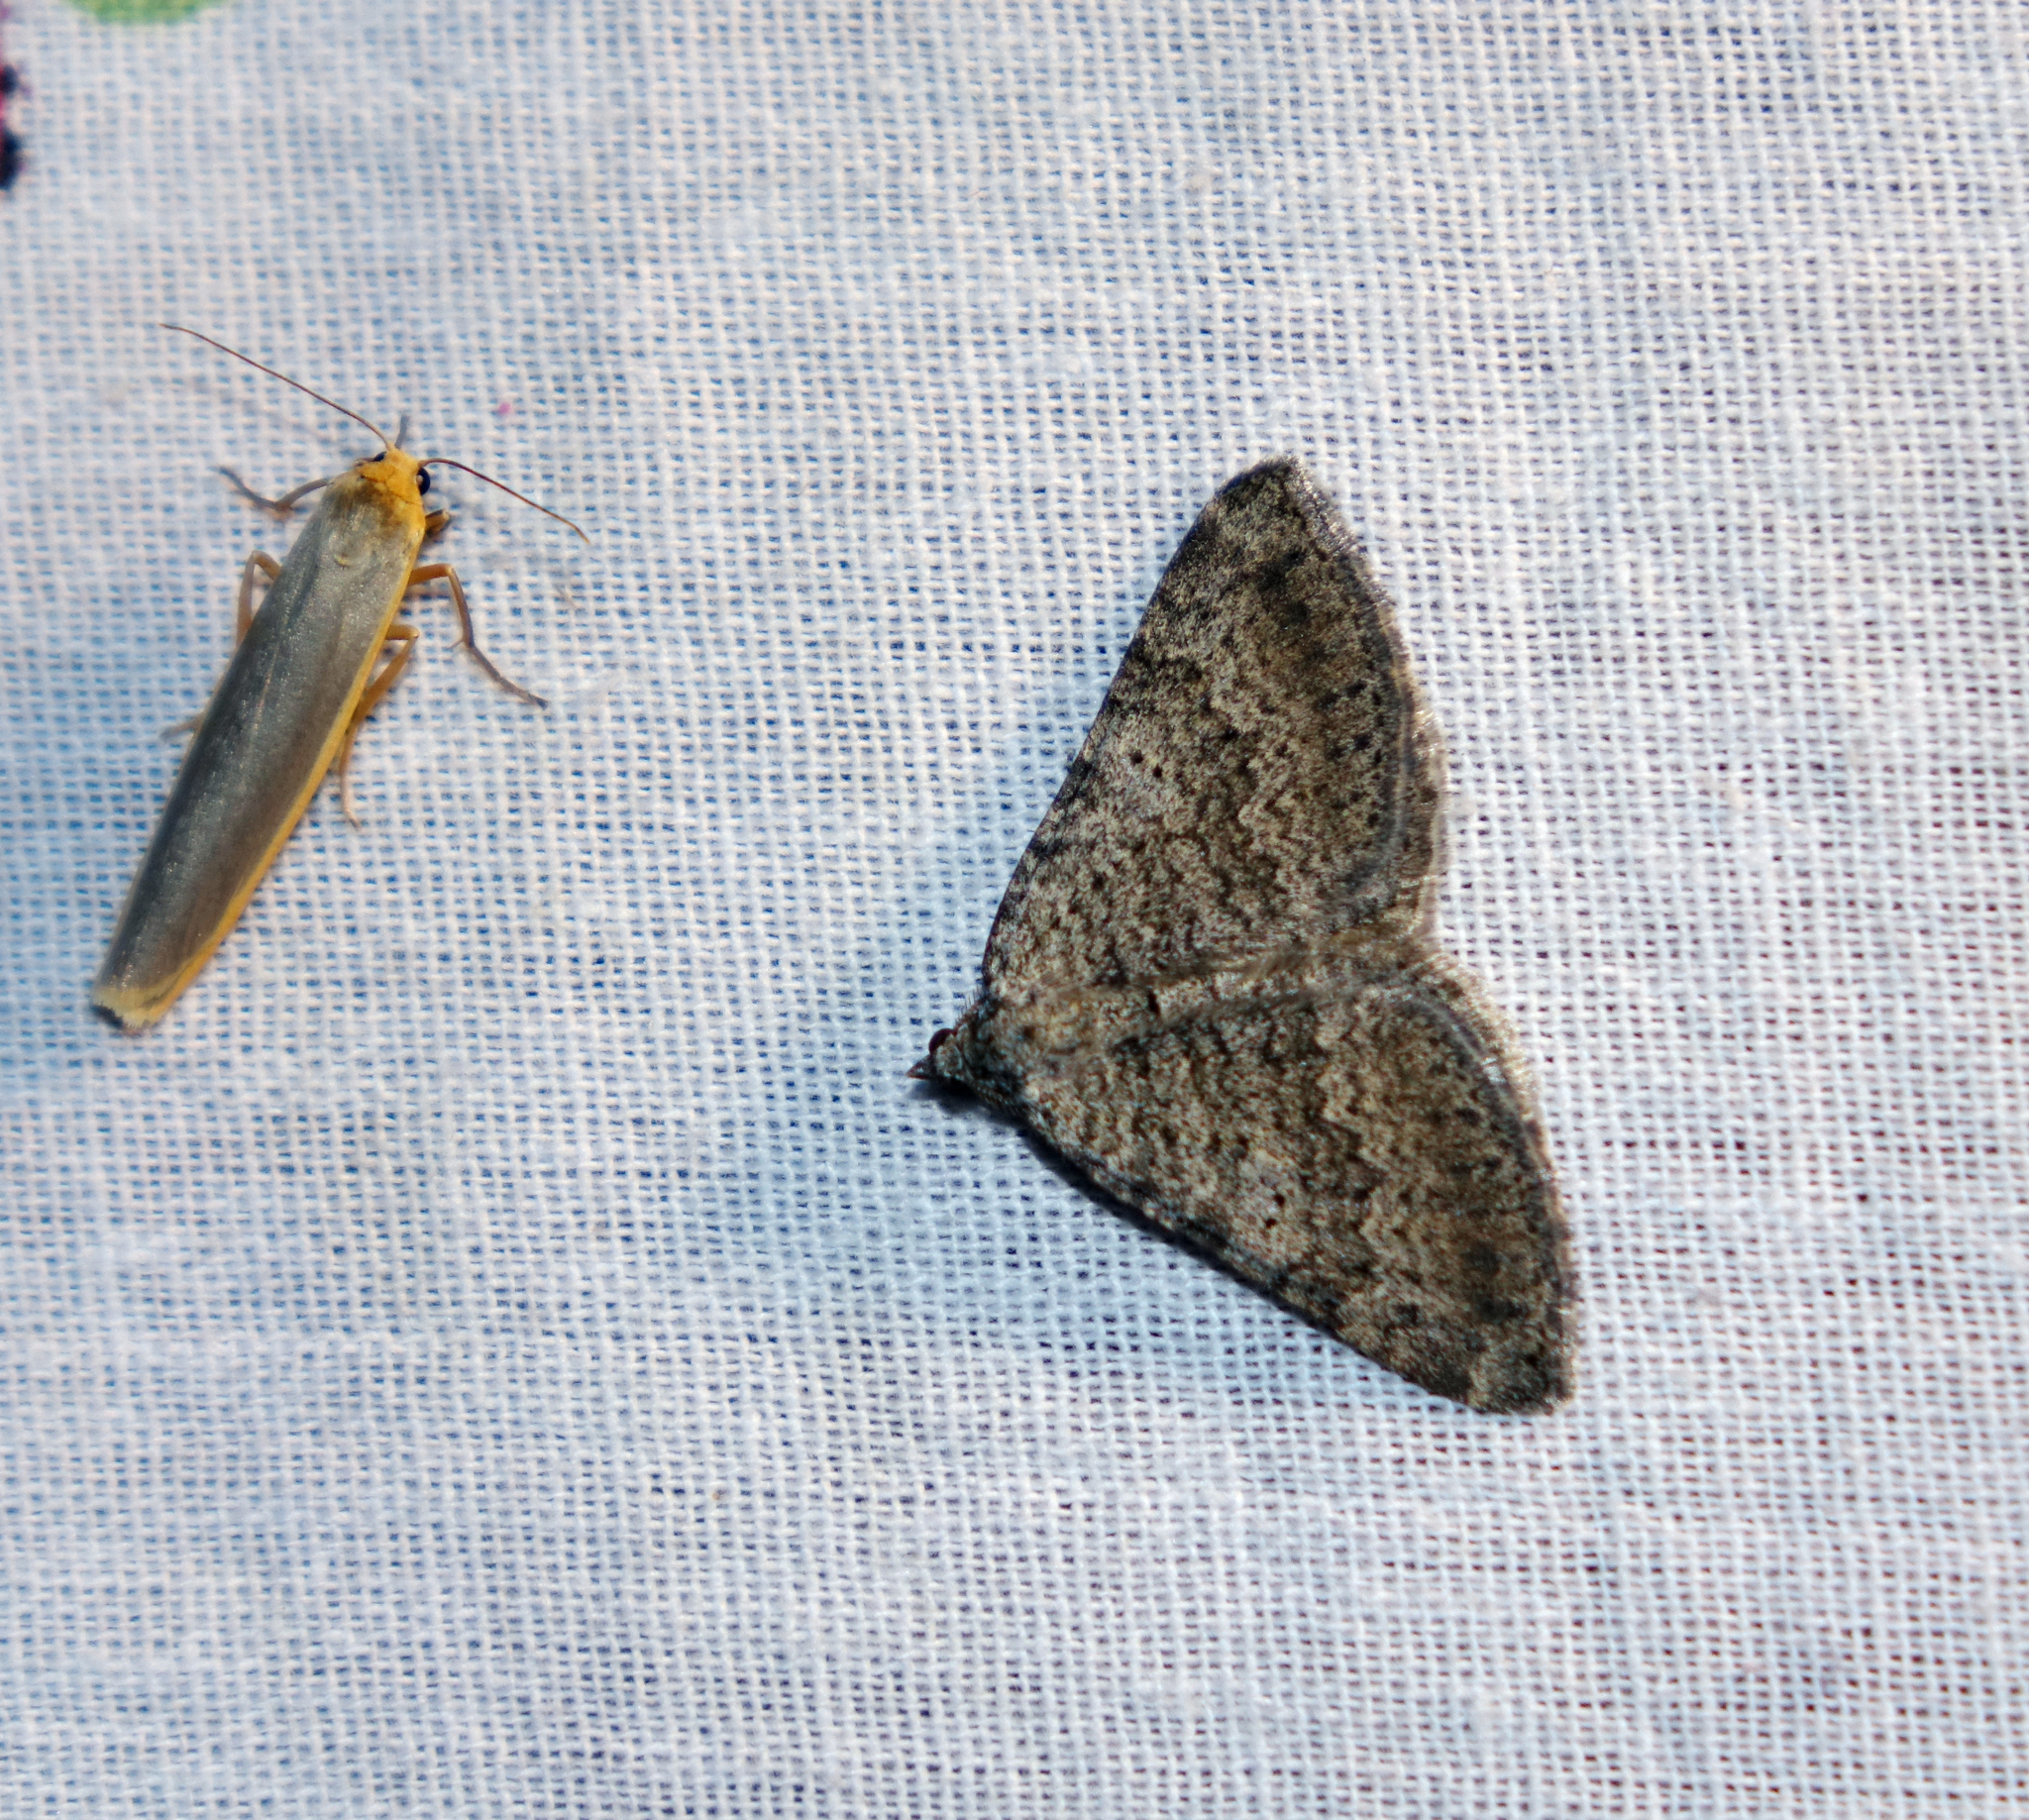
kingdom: Animalia
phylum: Arthropoda
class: Insecta
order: Lepidoptera
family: Geometridae
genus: Scotopteryx
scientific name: Scotopteryx
